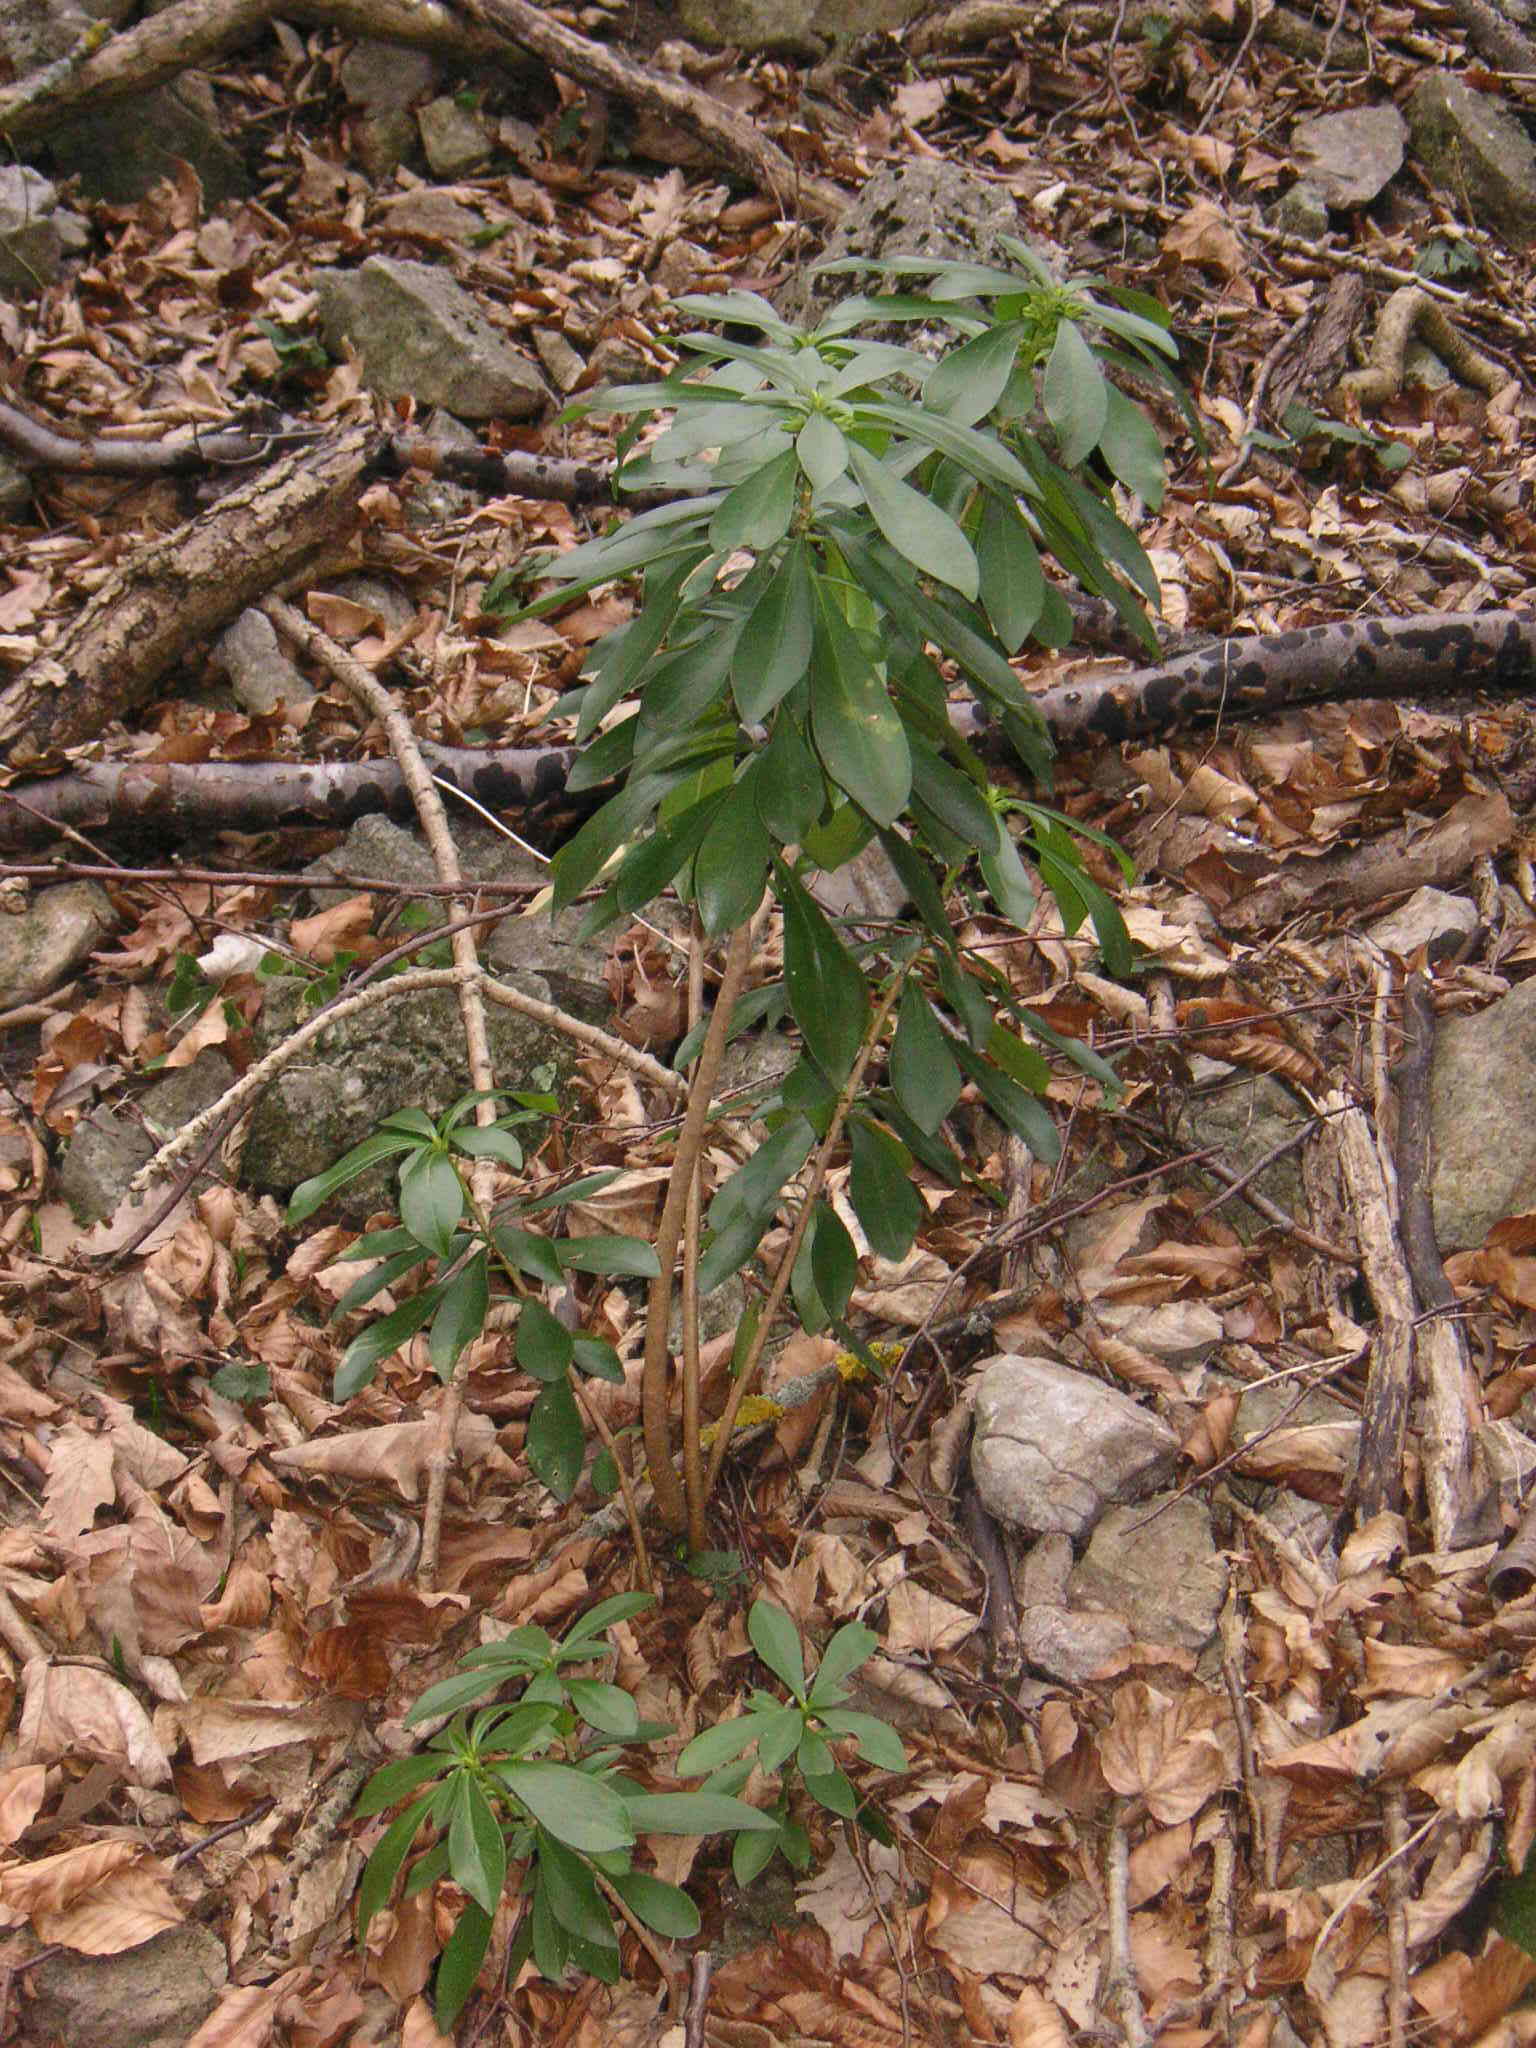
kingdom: Plantae
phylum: Tracheophyta
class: Magnoliopsida
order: Malvales
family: Thymelaeaceae
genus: Daphne
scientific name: Daphne laureola
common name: Spurge-laurel
